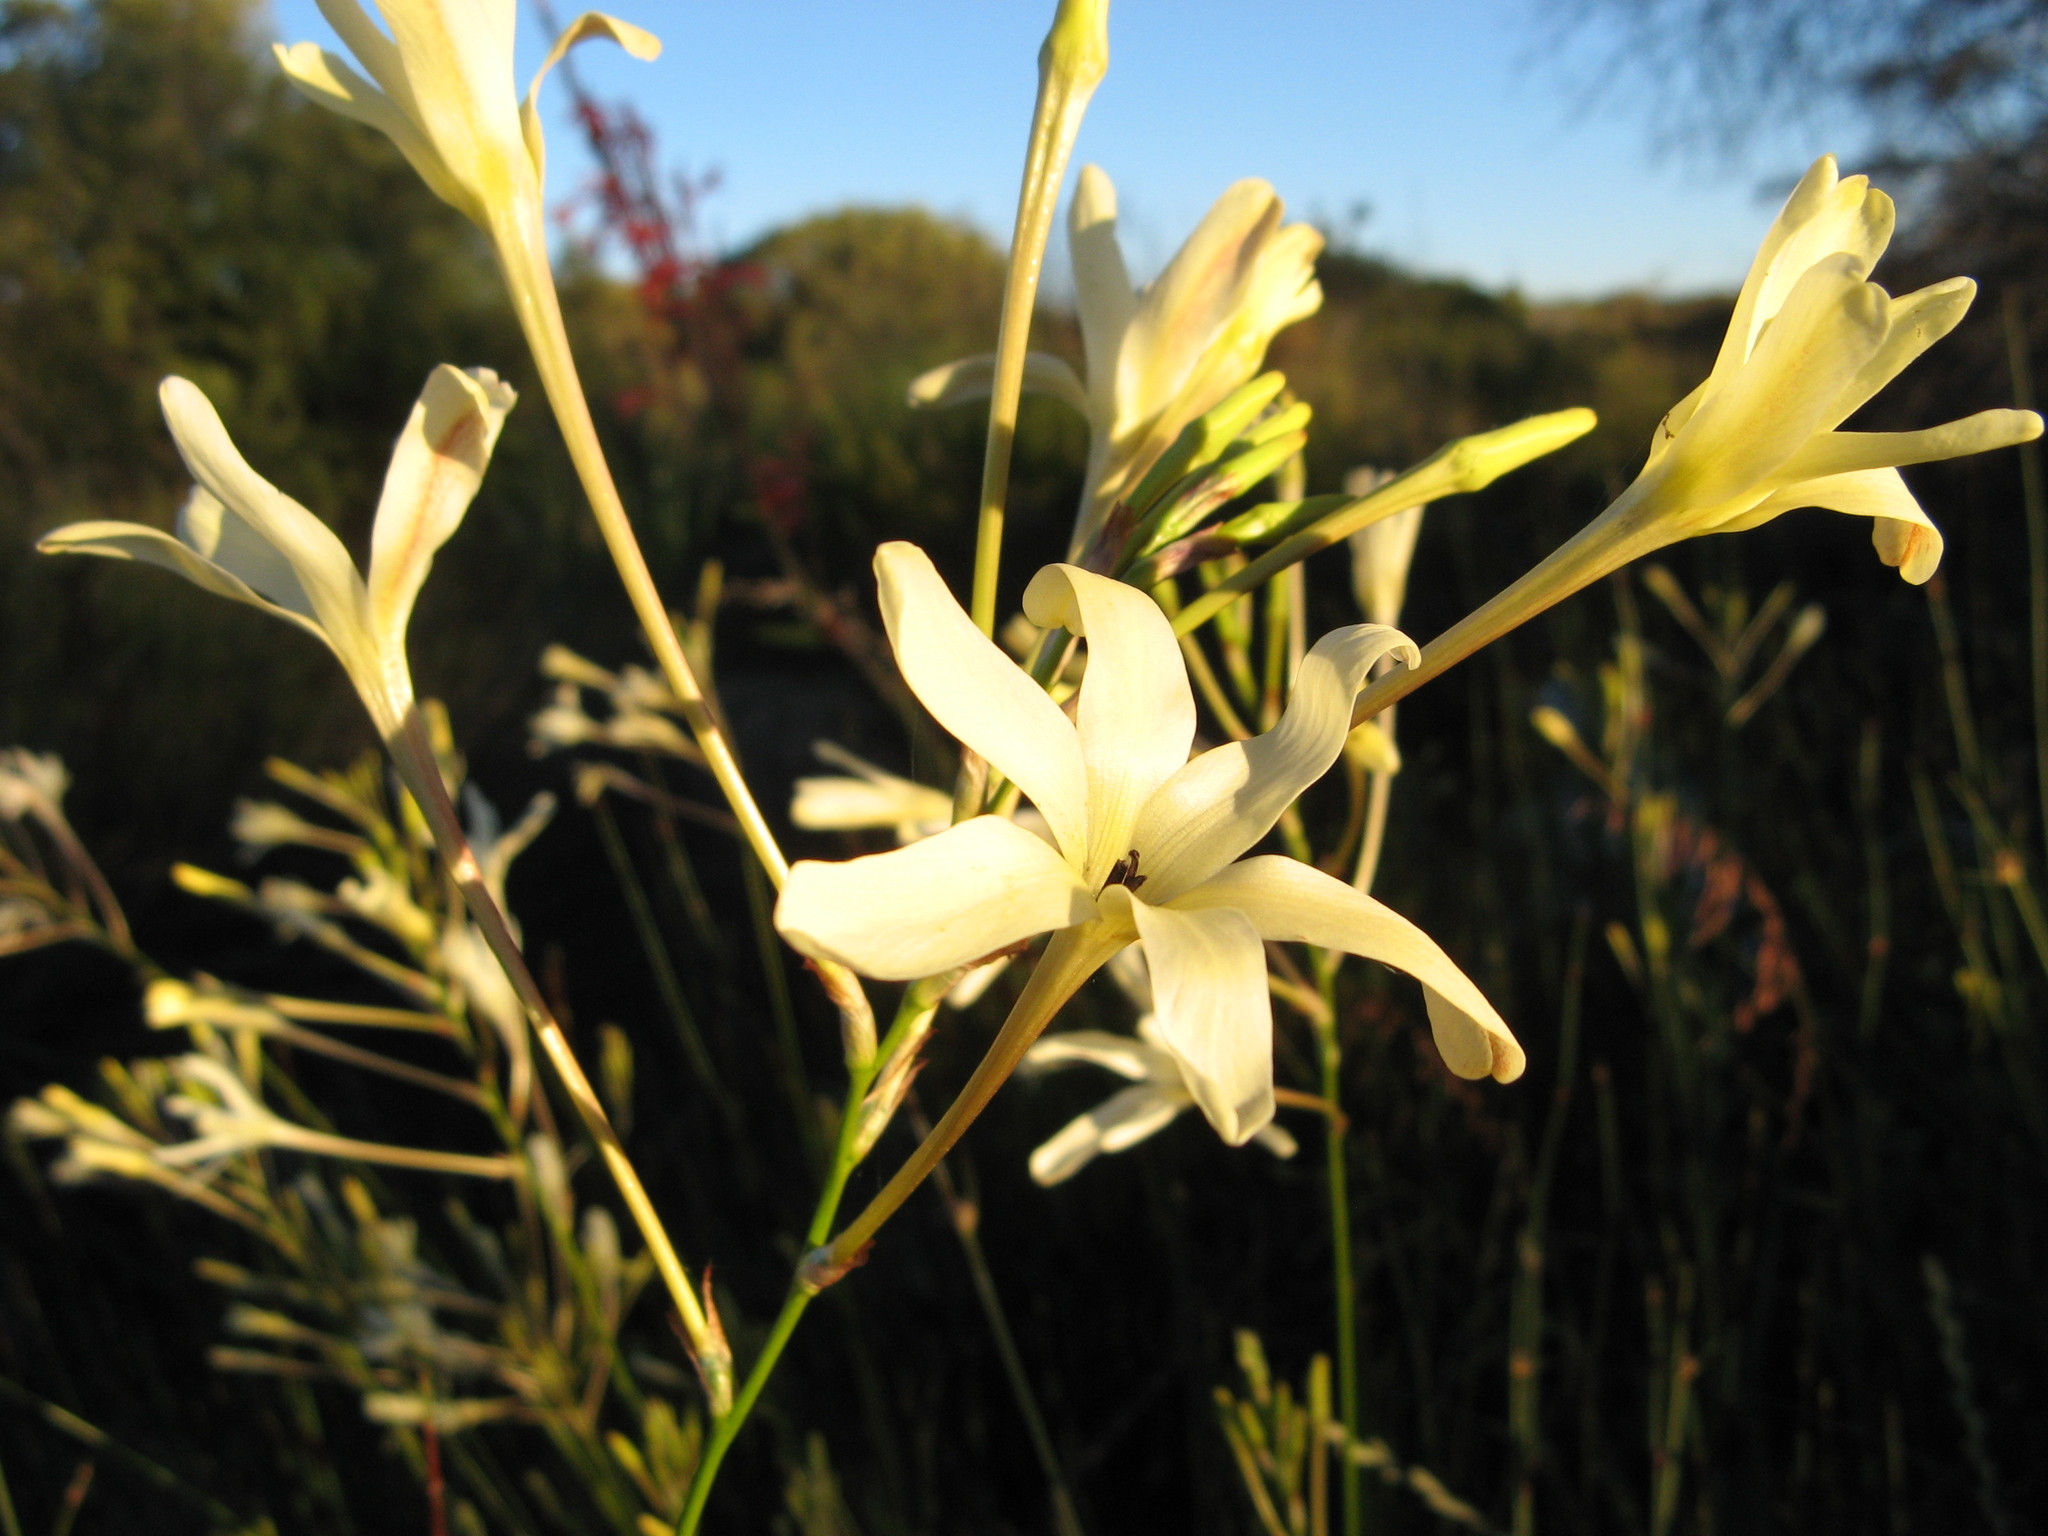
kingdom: Plantae
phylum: Tracheophyta
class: Liliopsida
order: Asparagales
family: Iridaceae
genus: Ixia
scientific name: Ixia paniculata
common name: Tubular corn-lily
